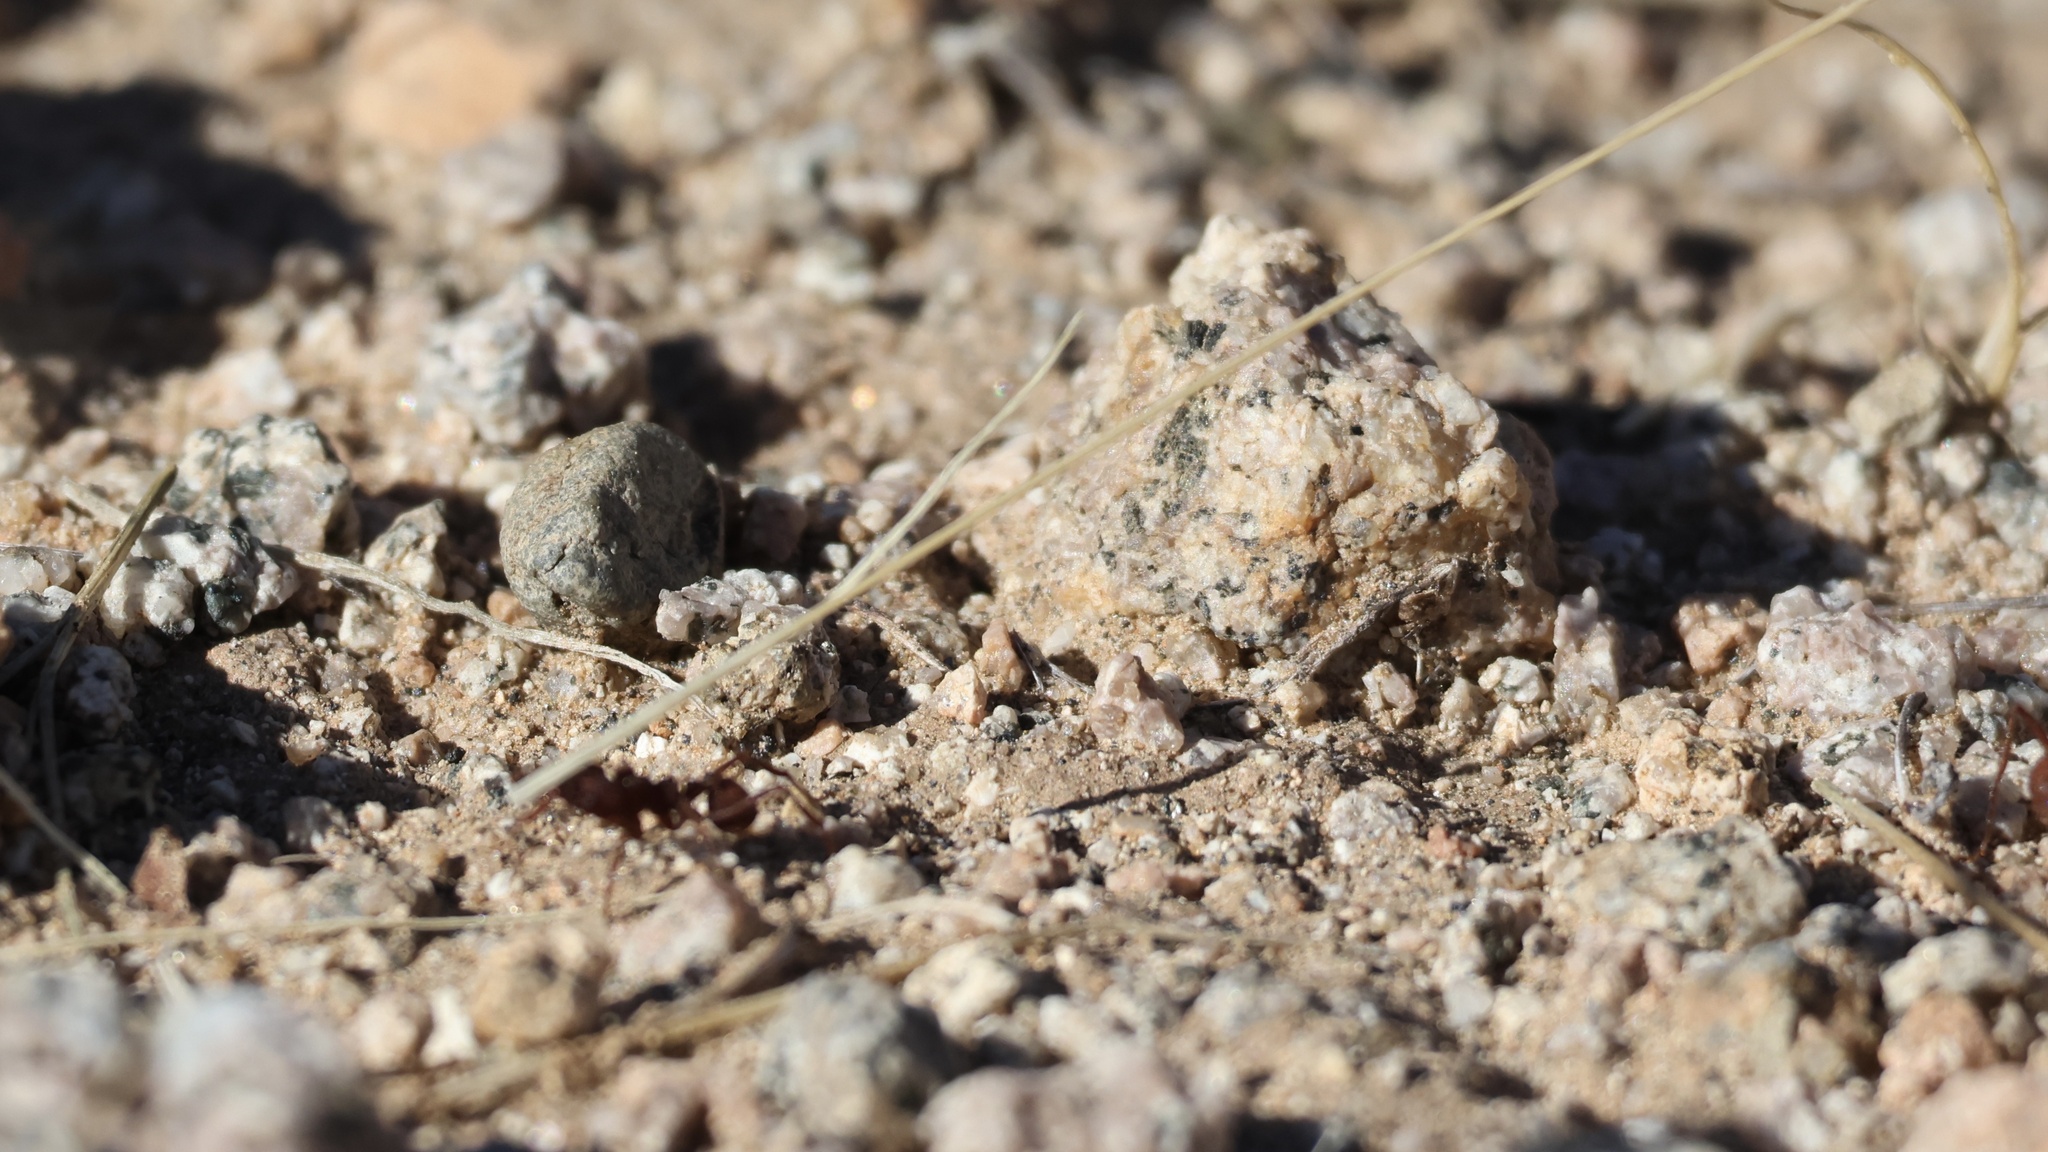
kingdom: Animalia
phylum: Arthropoda
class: Insecta
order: Hymenoptera
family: Formicidae
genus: Acromyrmex
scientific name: Acromyrmex versicolor
